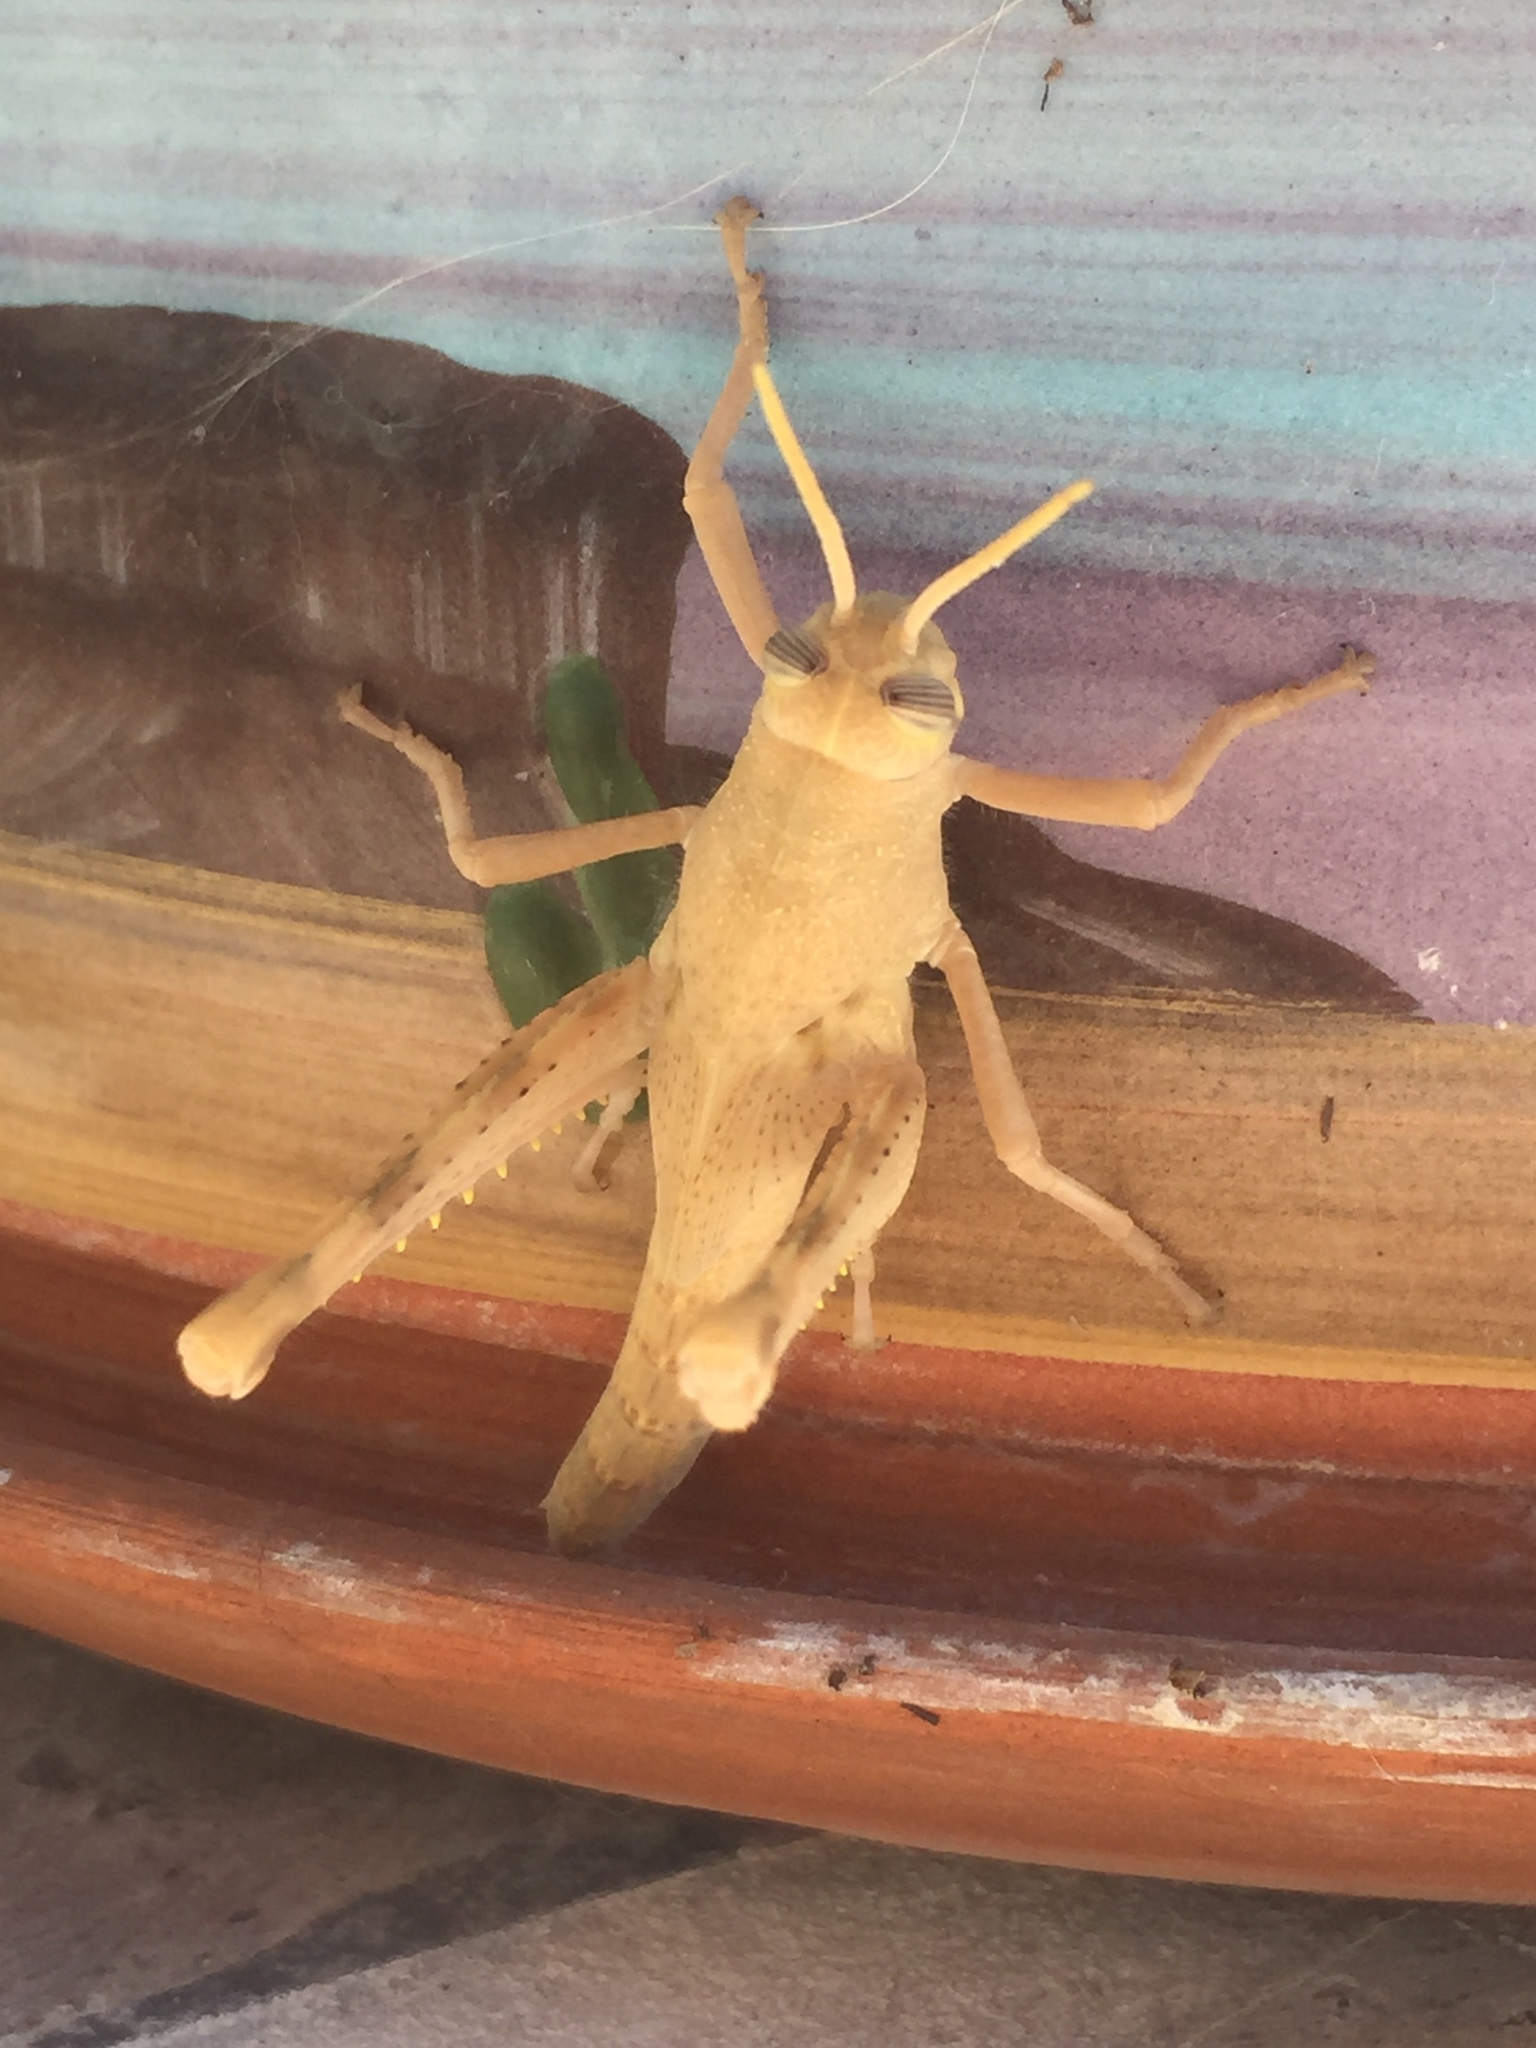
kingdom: Animalia
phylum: Arthropoda
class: Insecta
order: Orthoptera
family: Acrididae
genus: Schistocerca
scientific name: Schistocerca nitens
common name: Vagrant grasshopper
